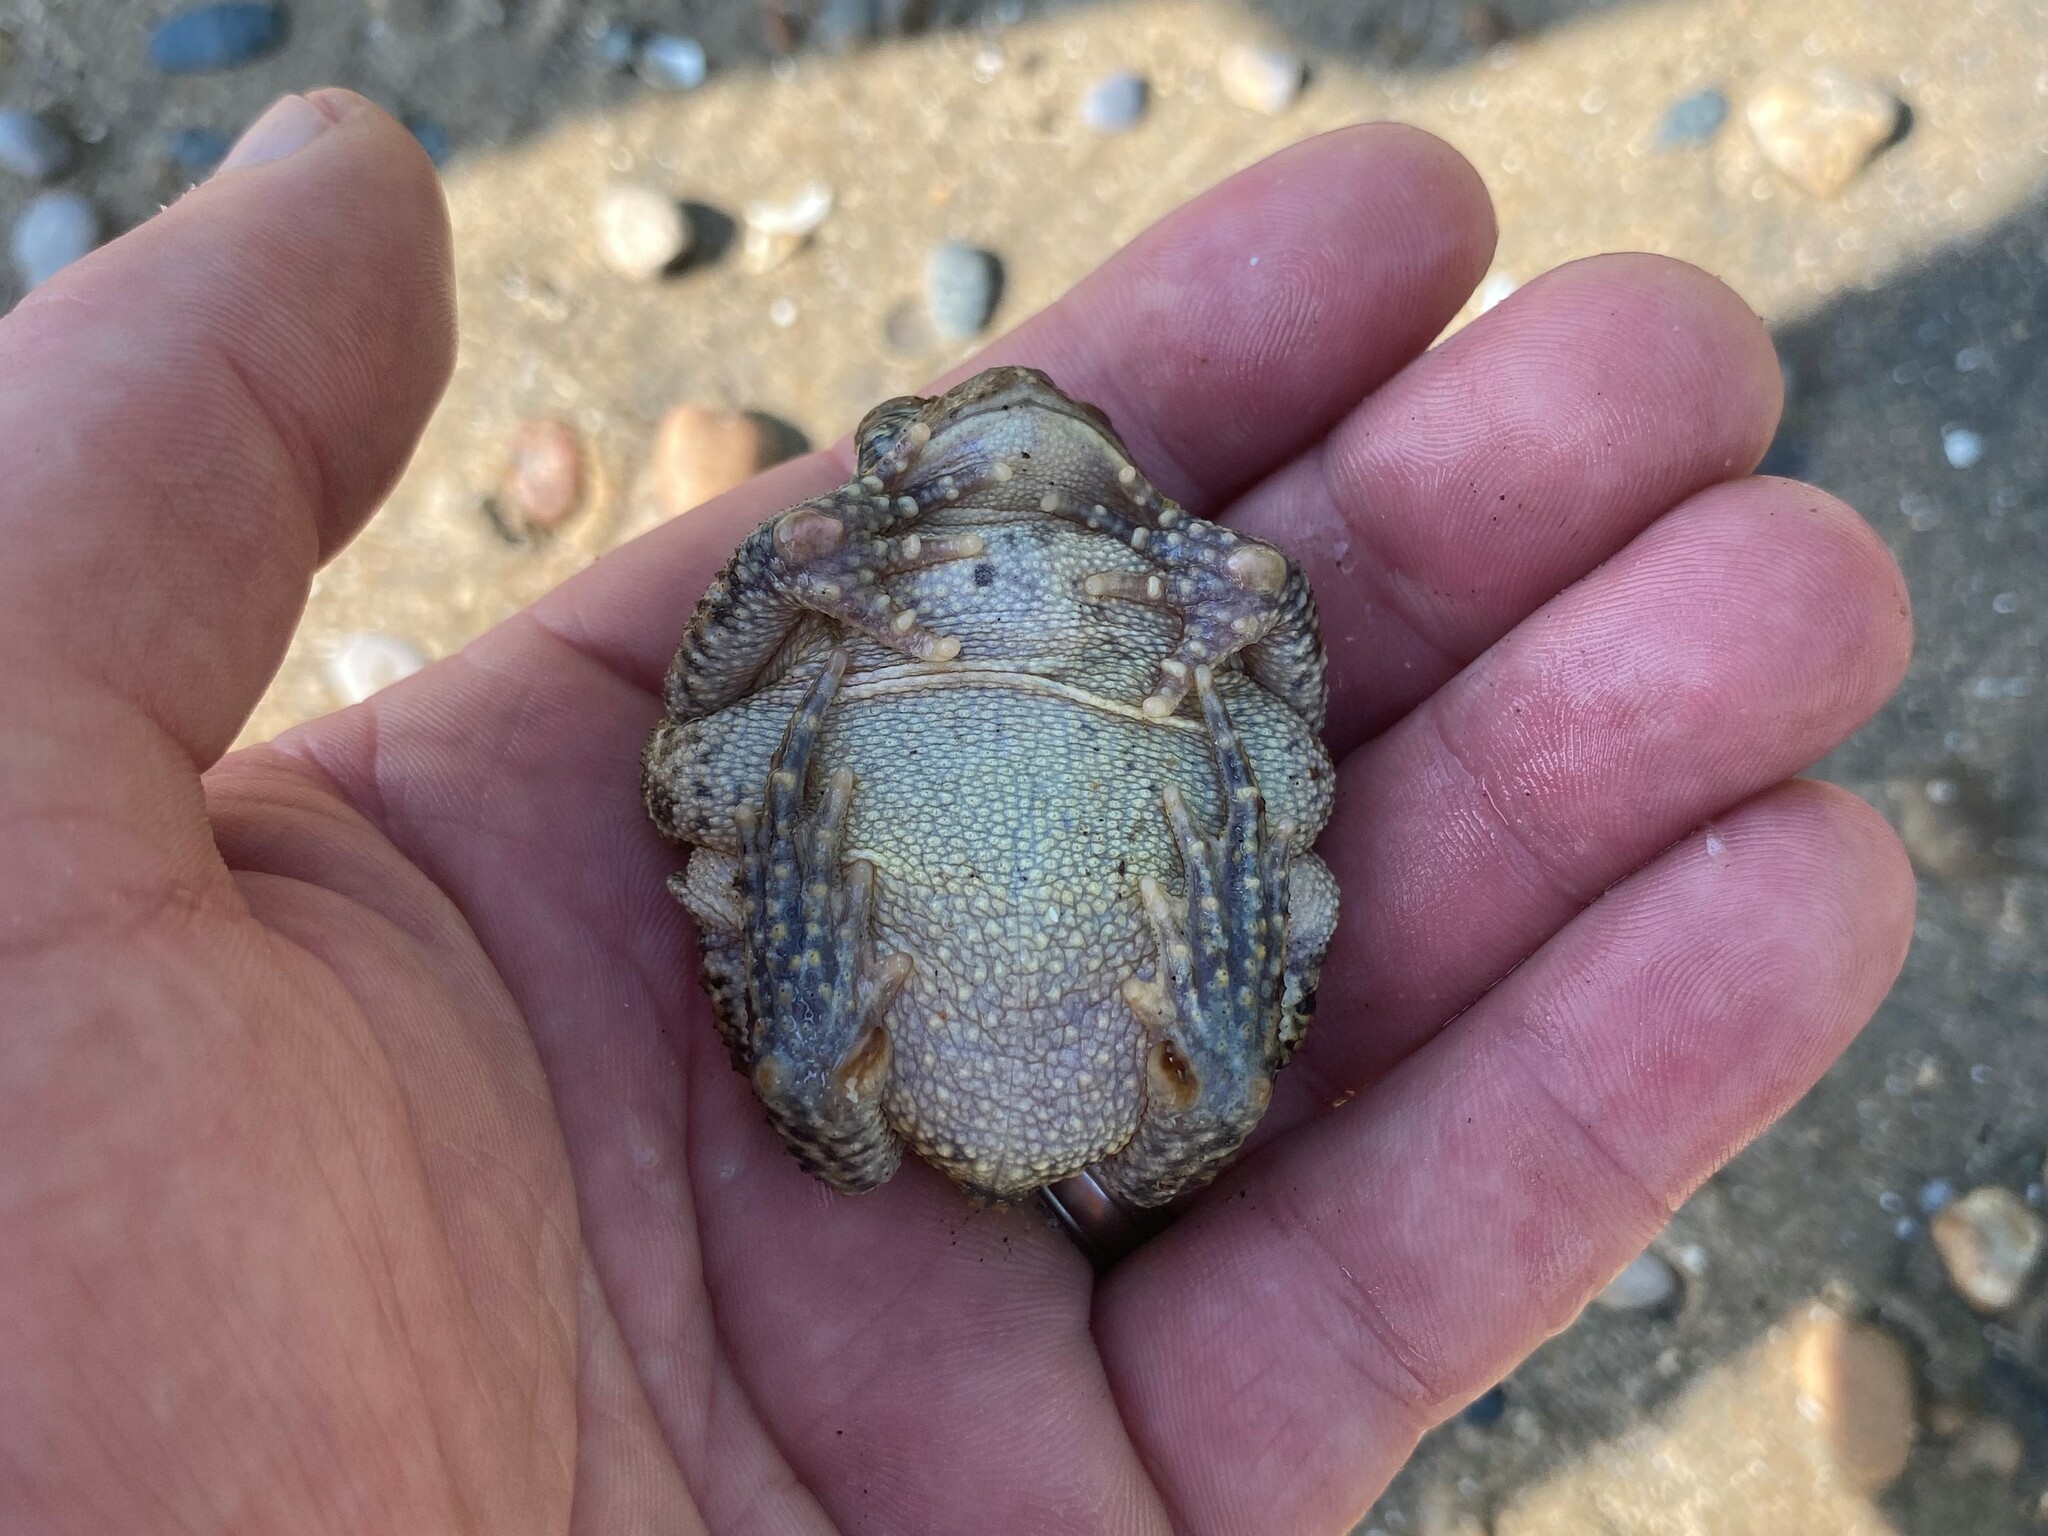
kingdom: Animalia
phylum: Chordata
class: Amphibia
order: Anura
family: Bufonidae
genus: Anaxyrus
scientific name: Anaxyrus americanus
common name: American toad
